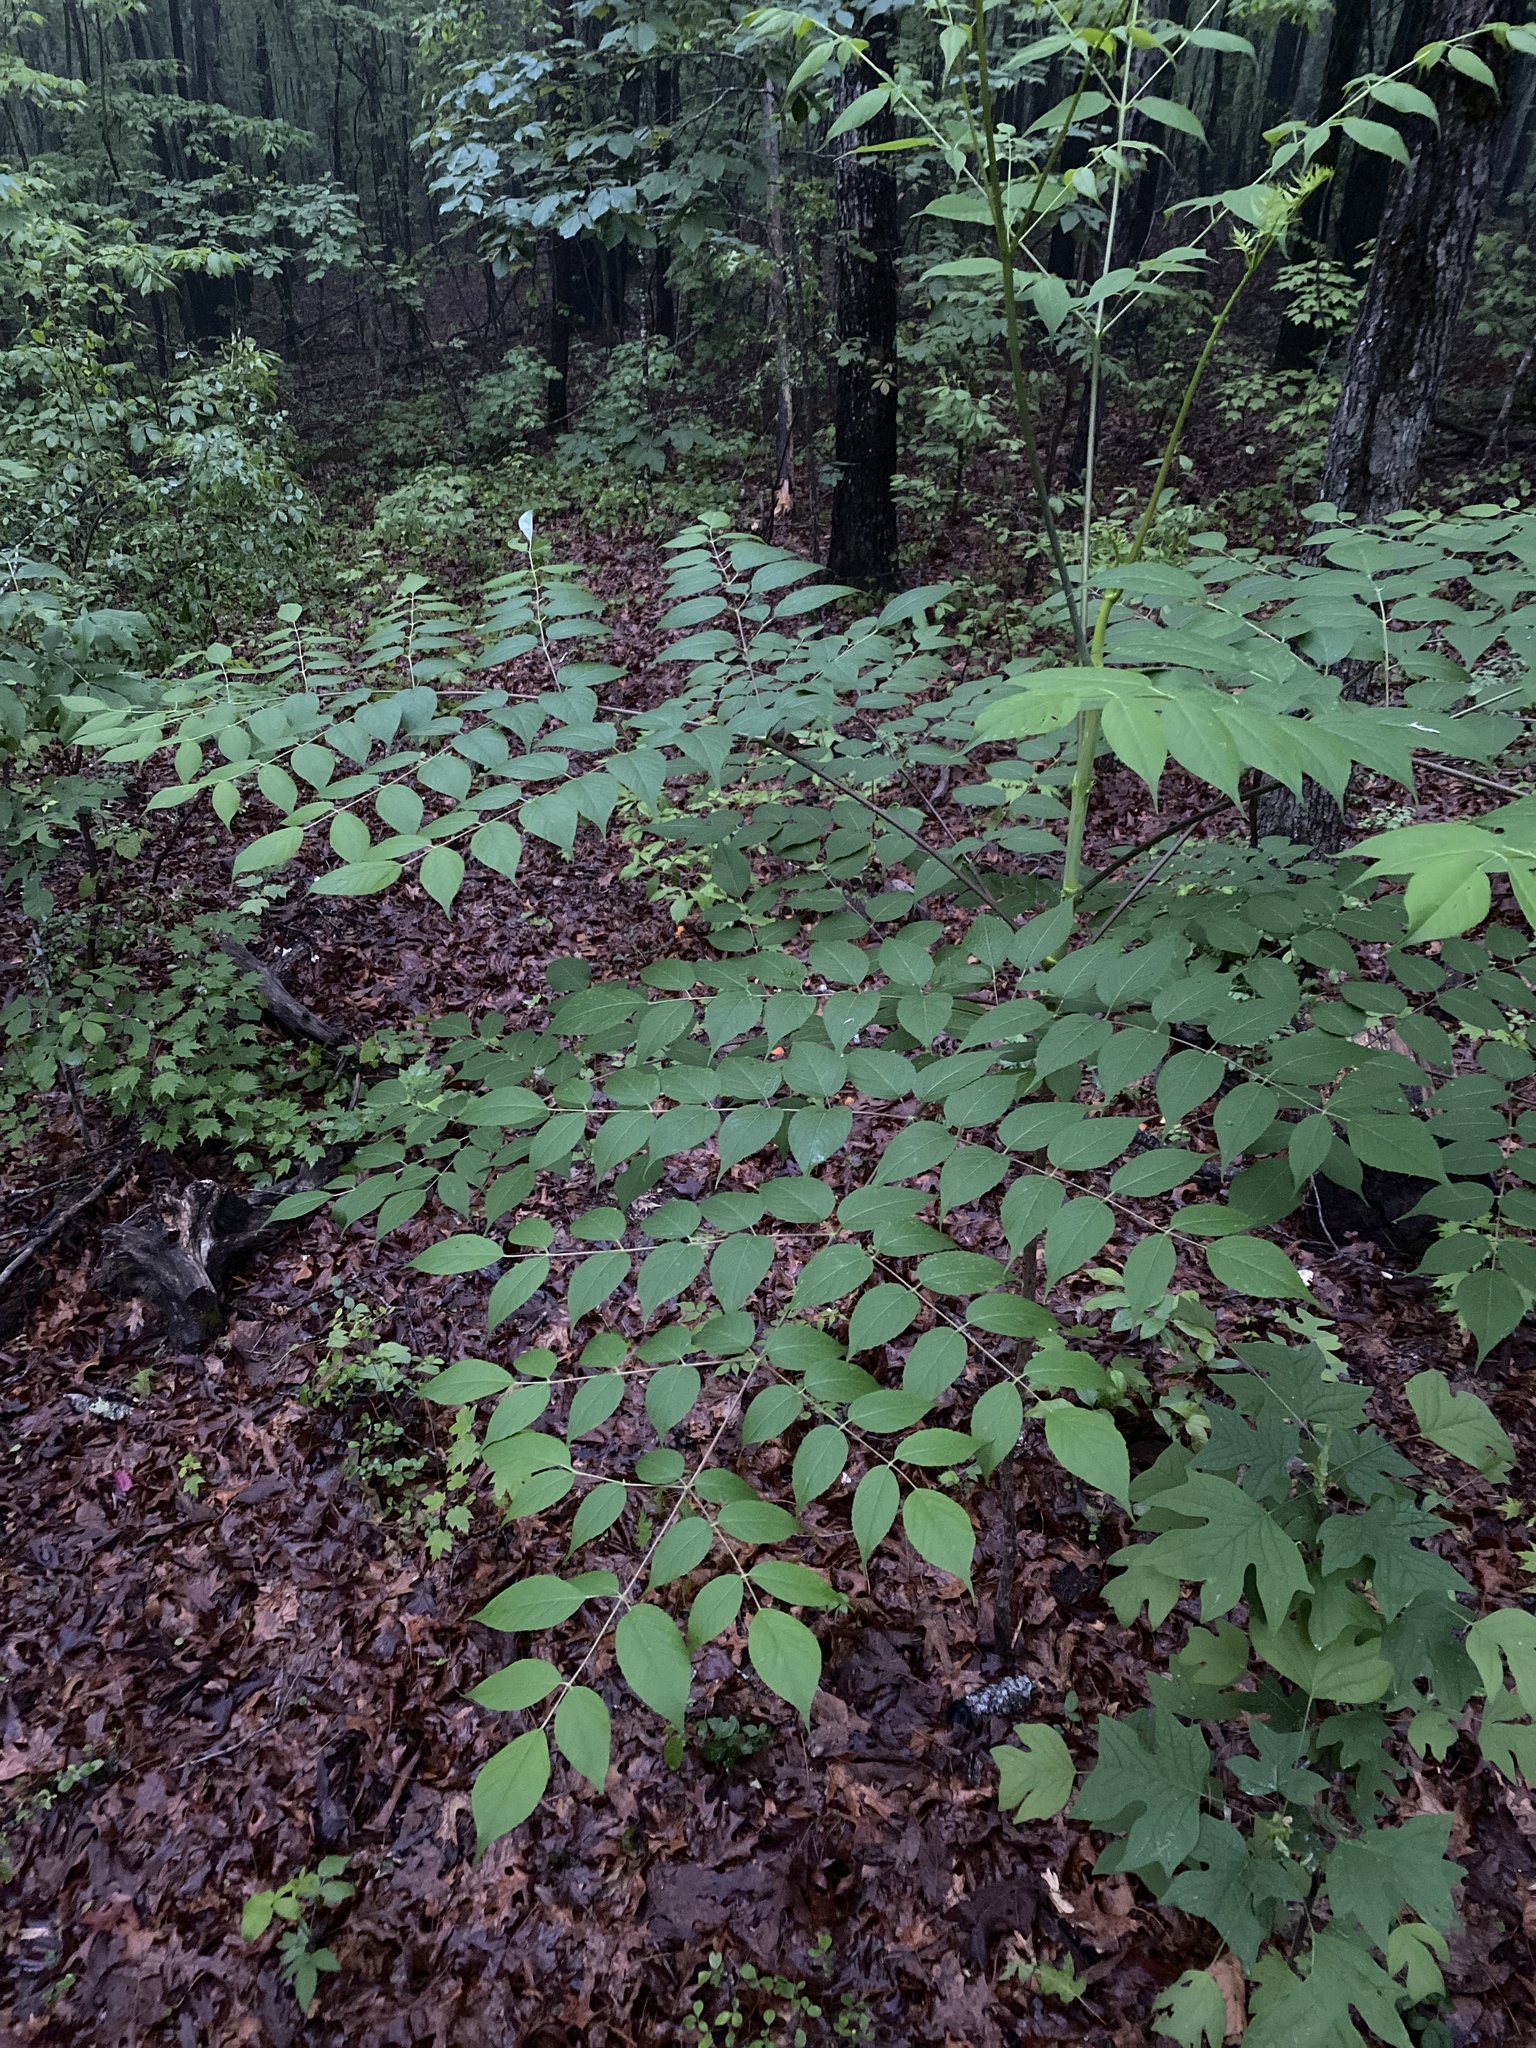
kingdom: Plantae
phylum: Tracheophyta
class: Magnoliopsida
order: Apiales
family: Araliaceae
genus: Aralia
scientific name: Aralia spinosa
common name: Hercules'-club
